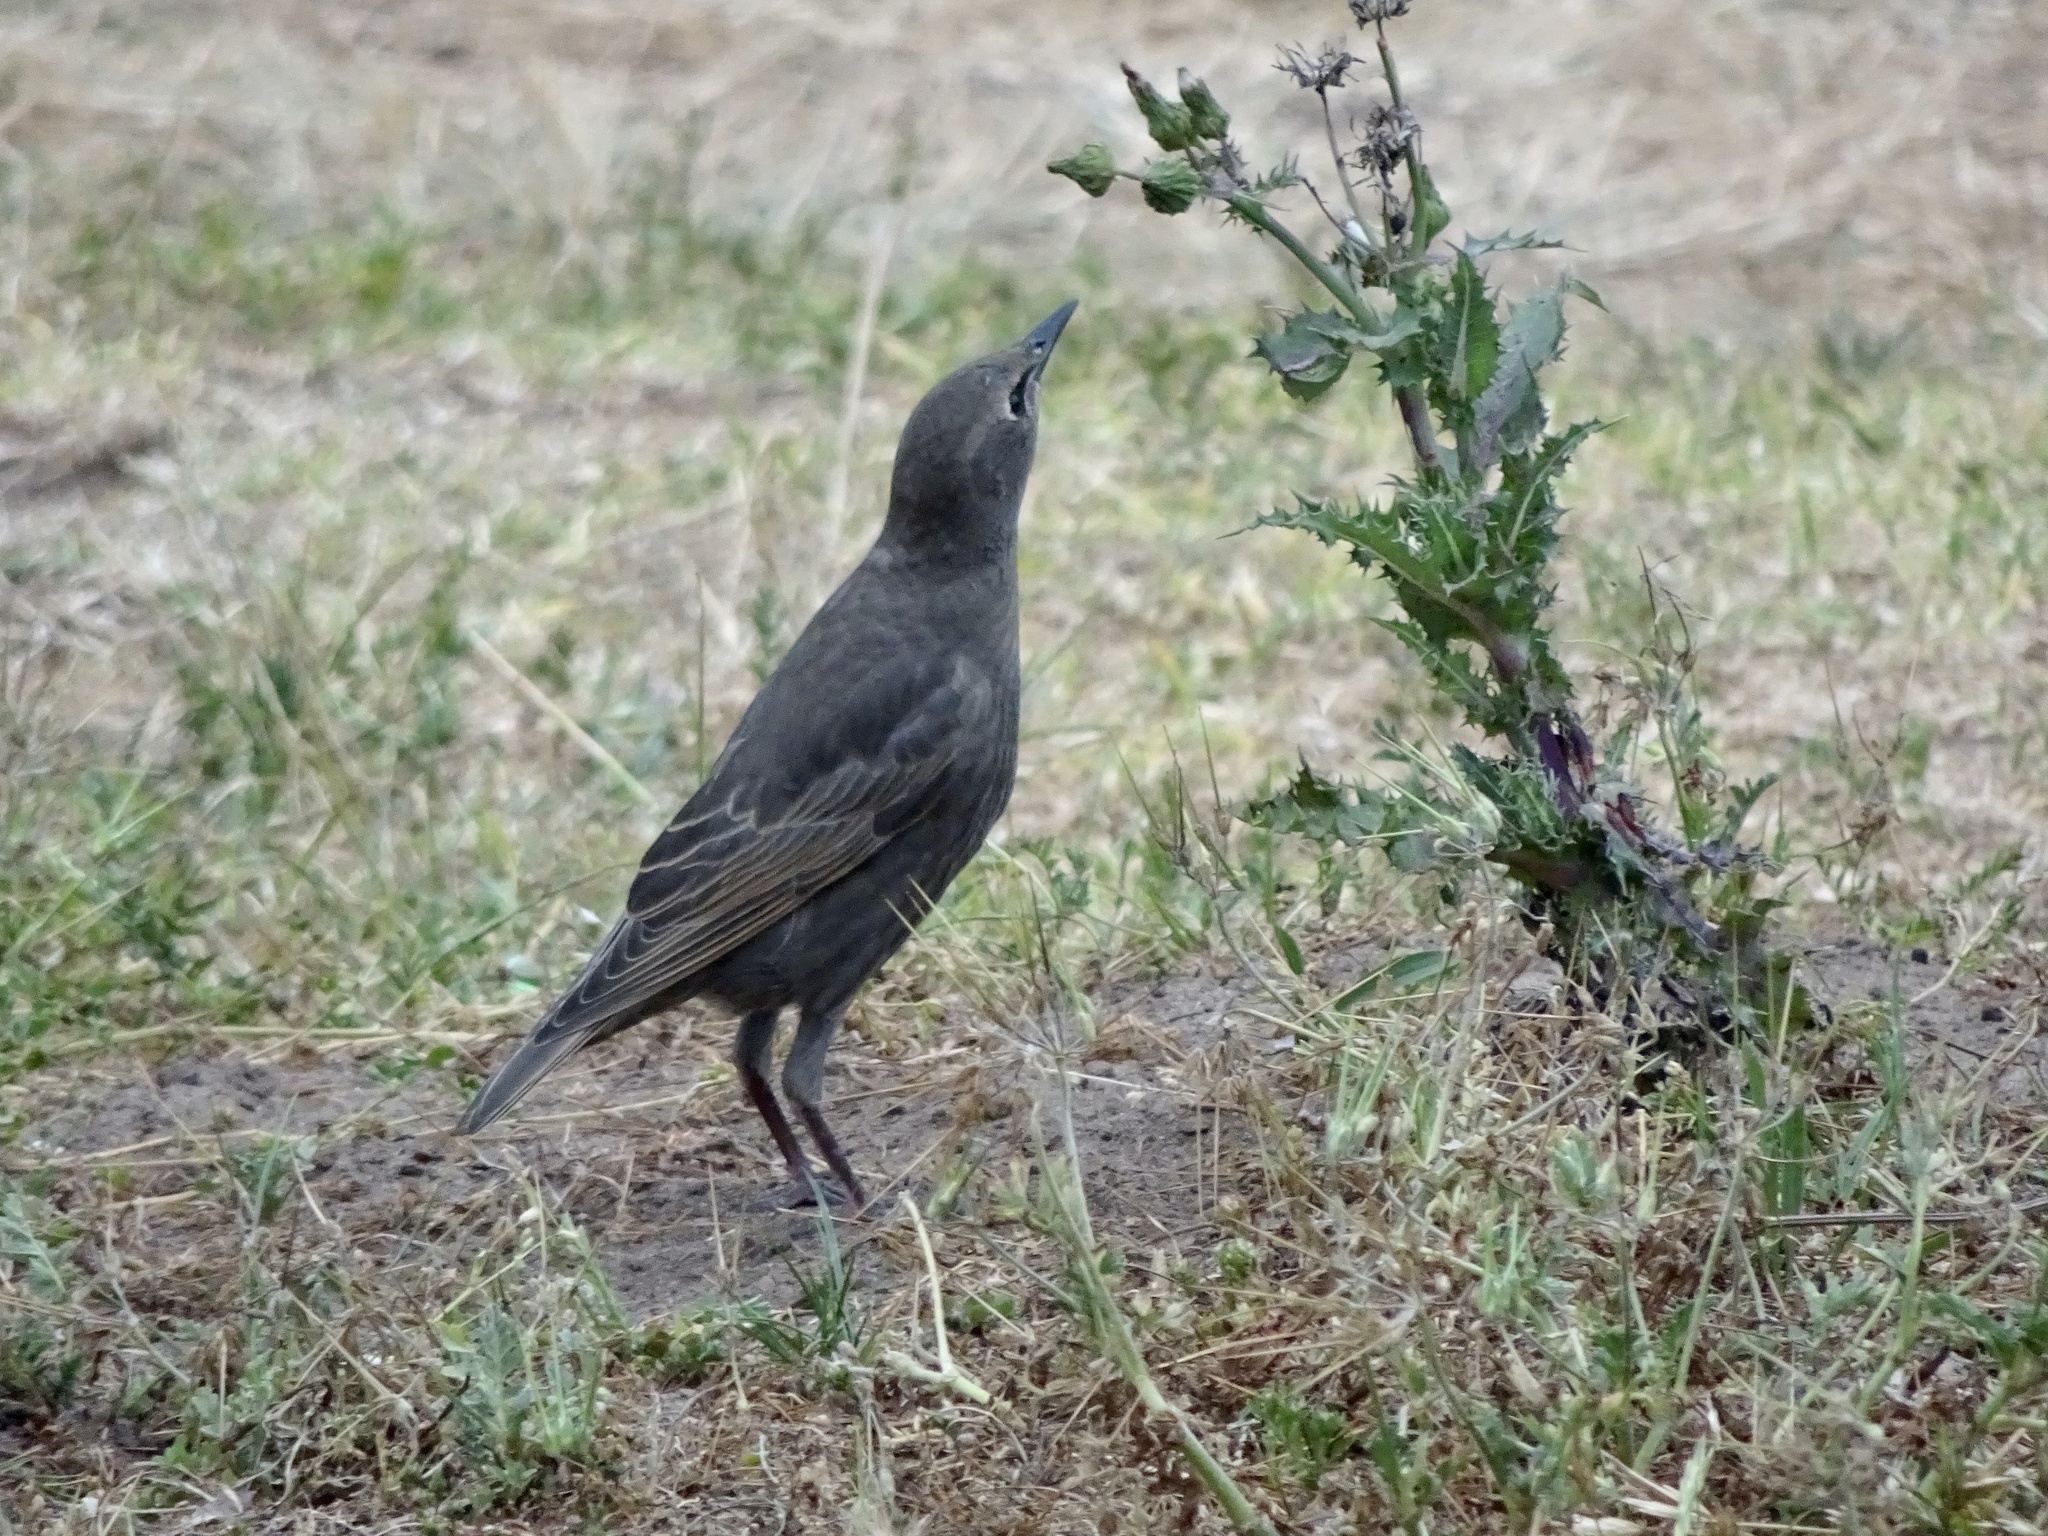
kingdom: Animalia
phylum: Chordata
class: Aves
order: Passeriformes
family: Sturnidae
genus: Sturnus
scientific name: Sturnus vulgaris
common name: Common starling
